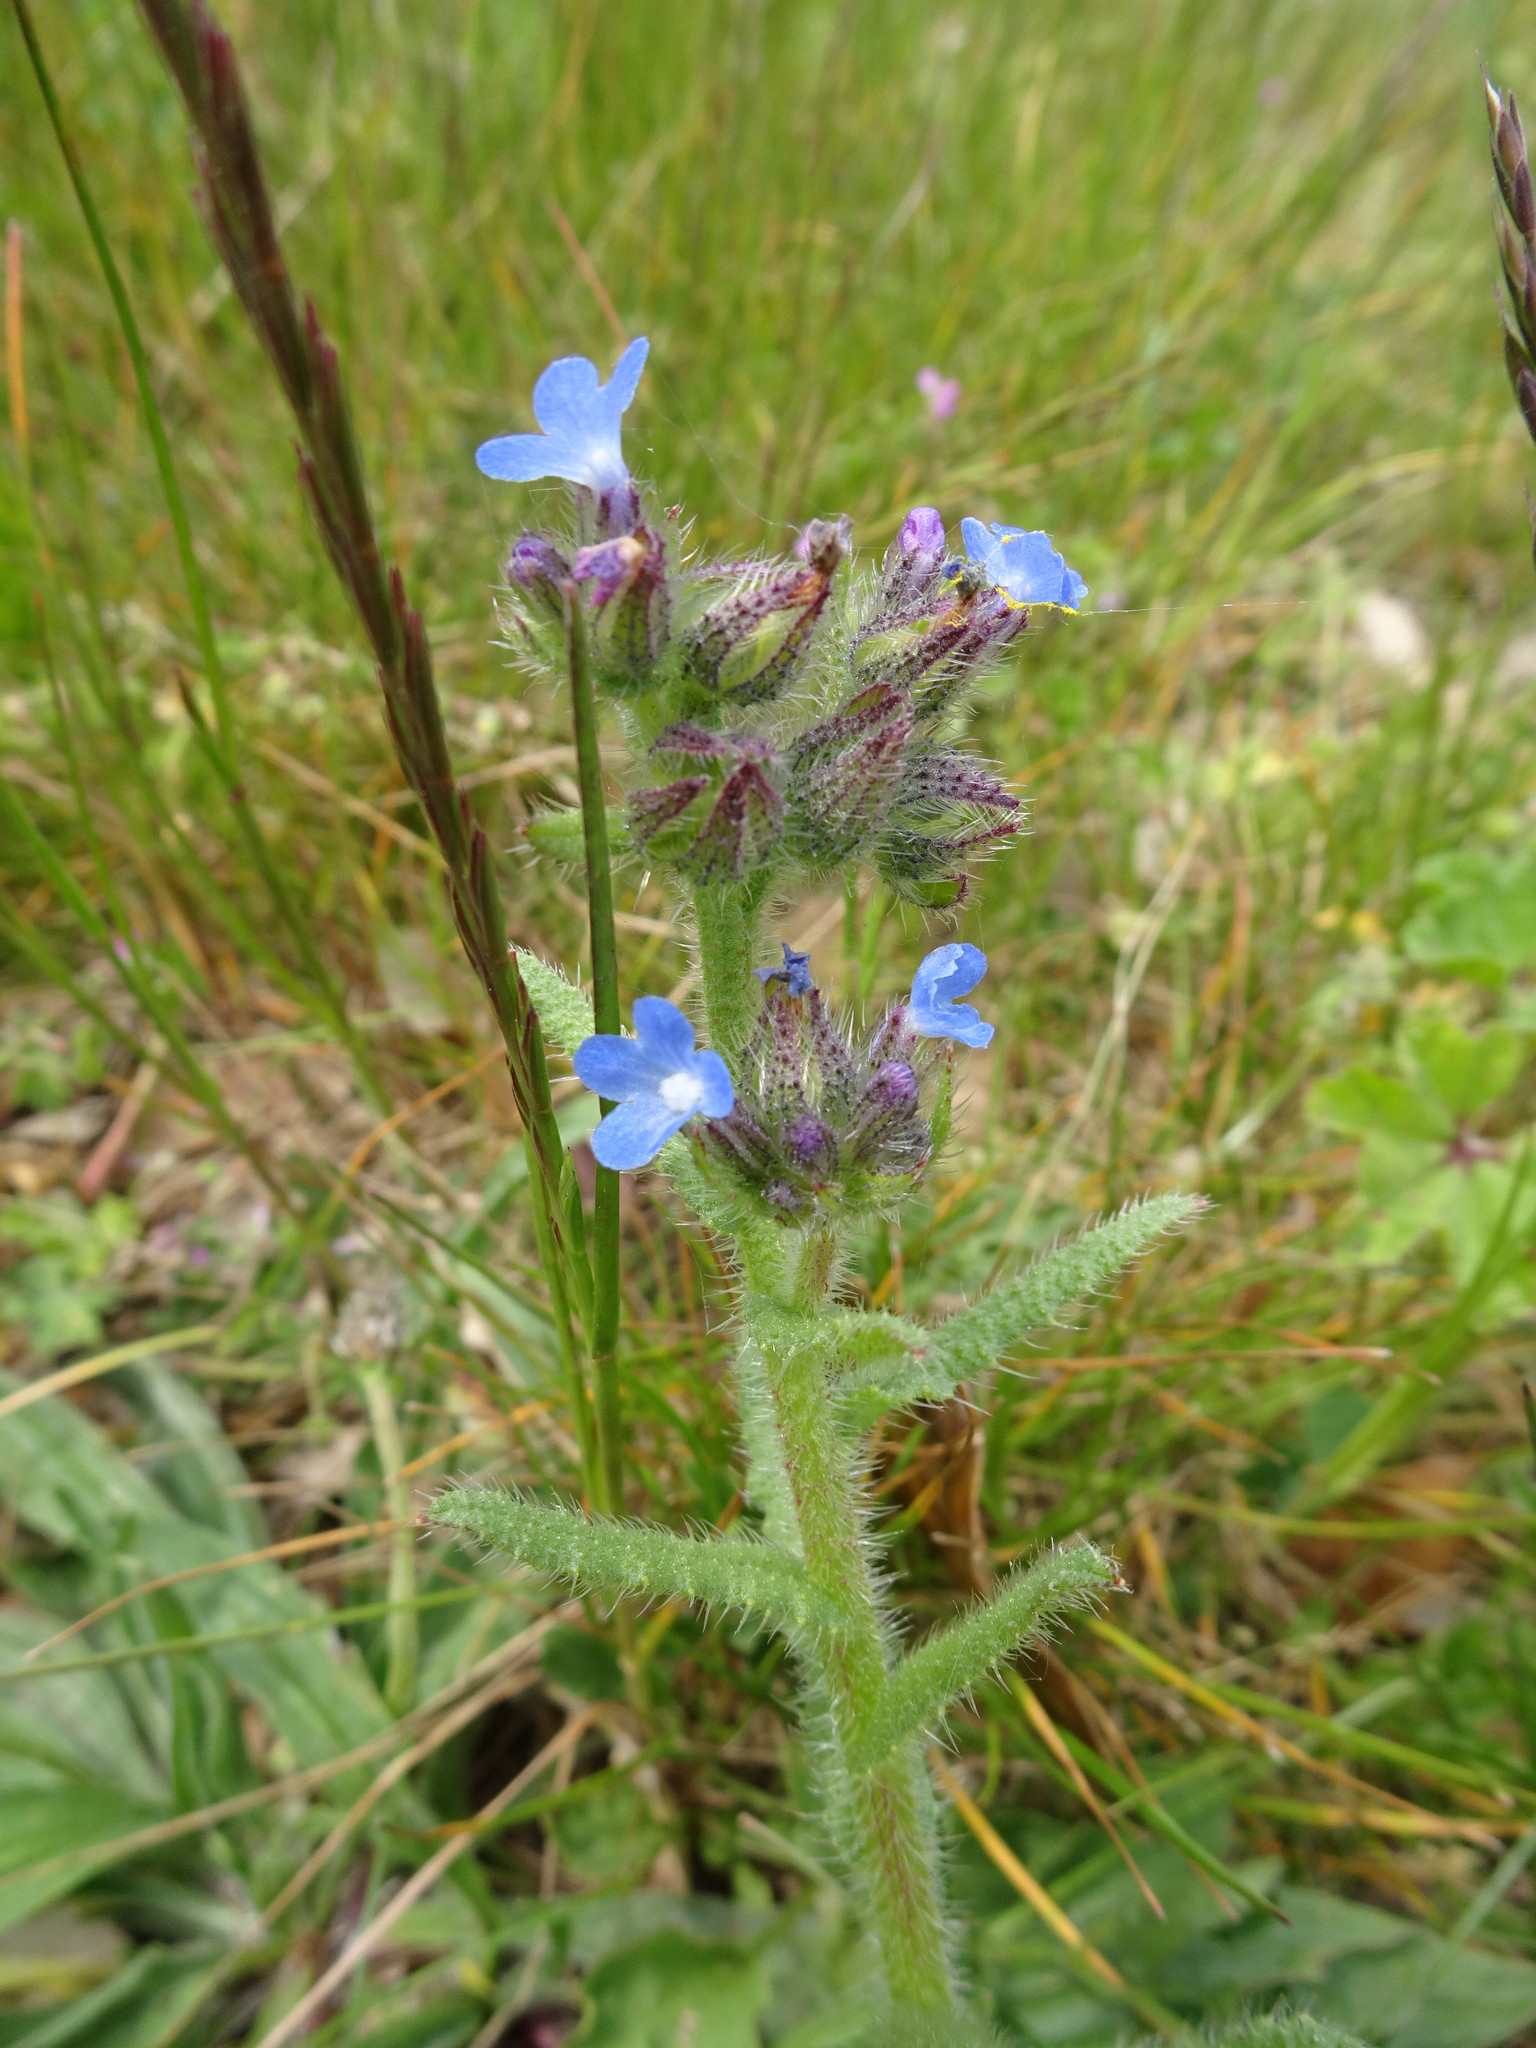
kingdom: Plantae
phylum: Tracheophyta
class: Magnoliopsida
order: Boraginales
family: Boraginaceae
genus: Lycopsis
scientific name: Lycopsis arvensis
